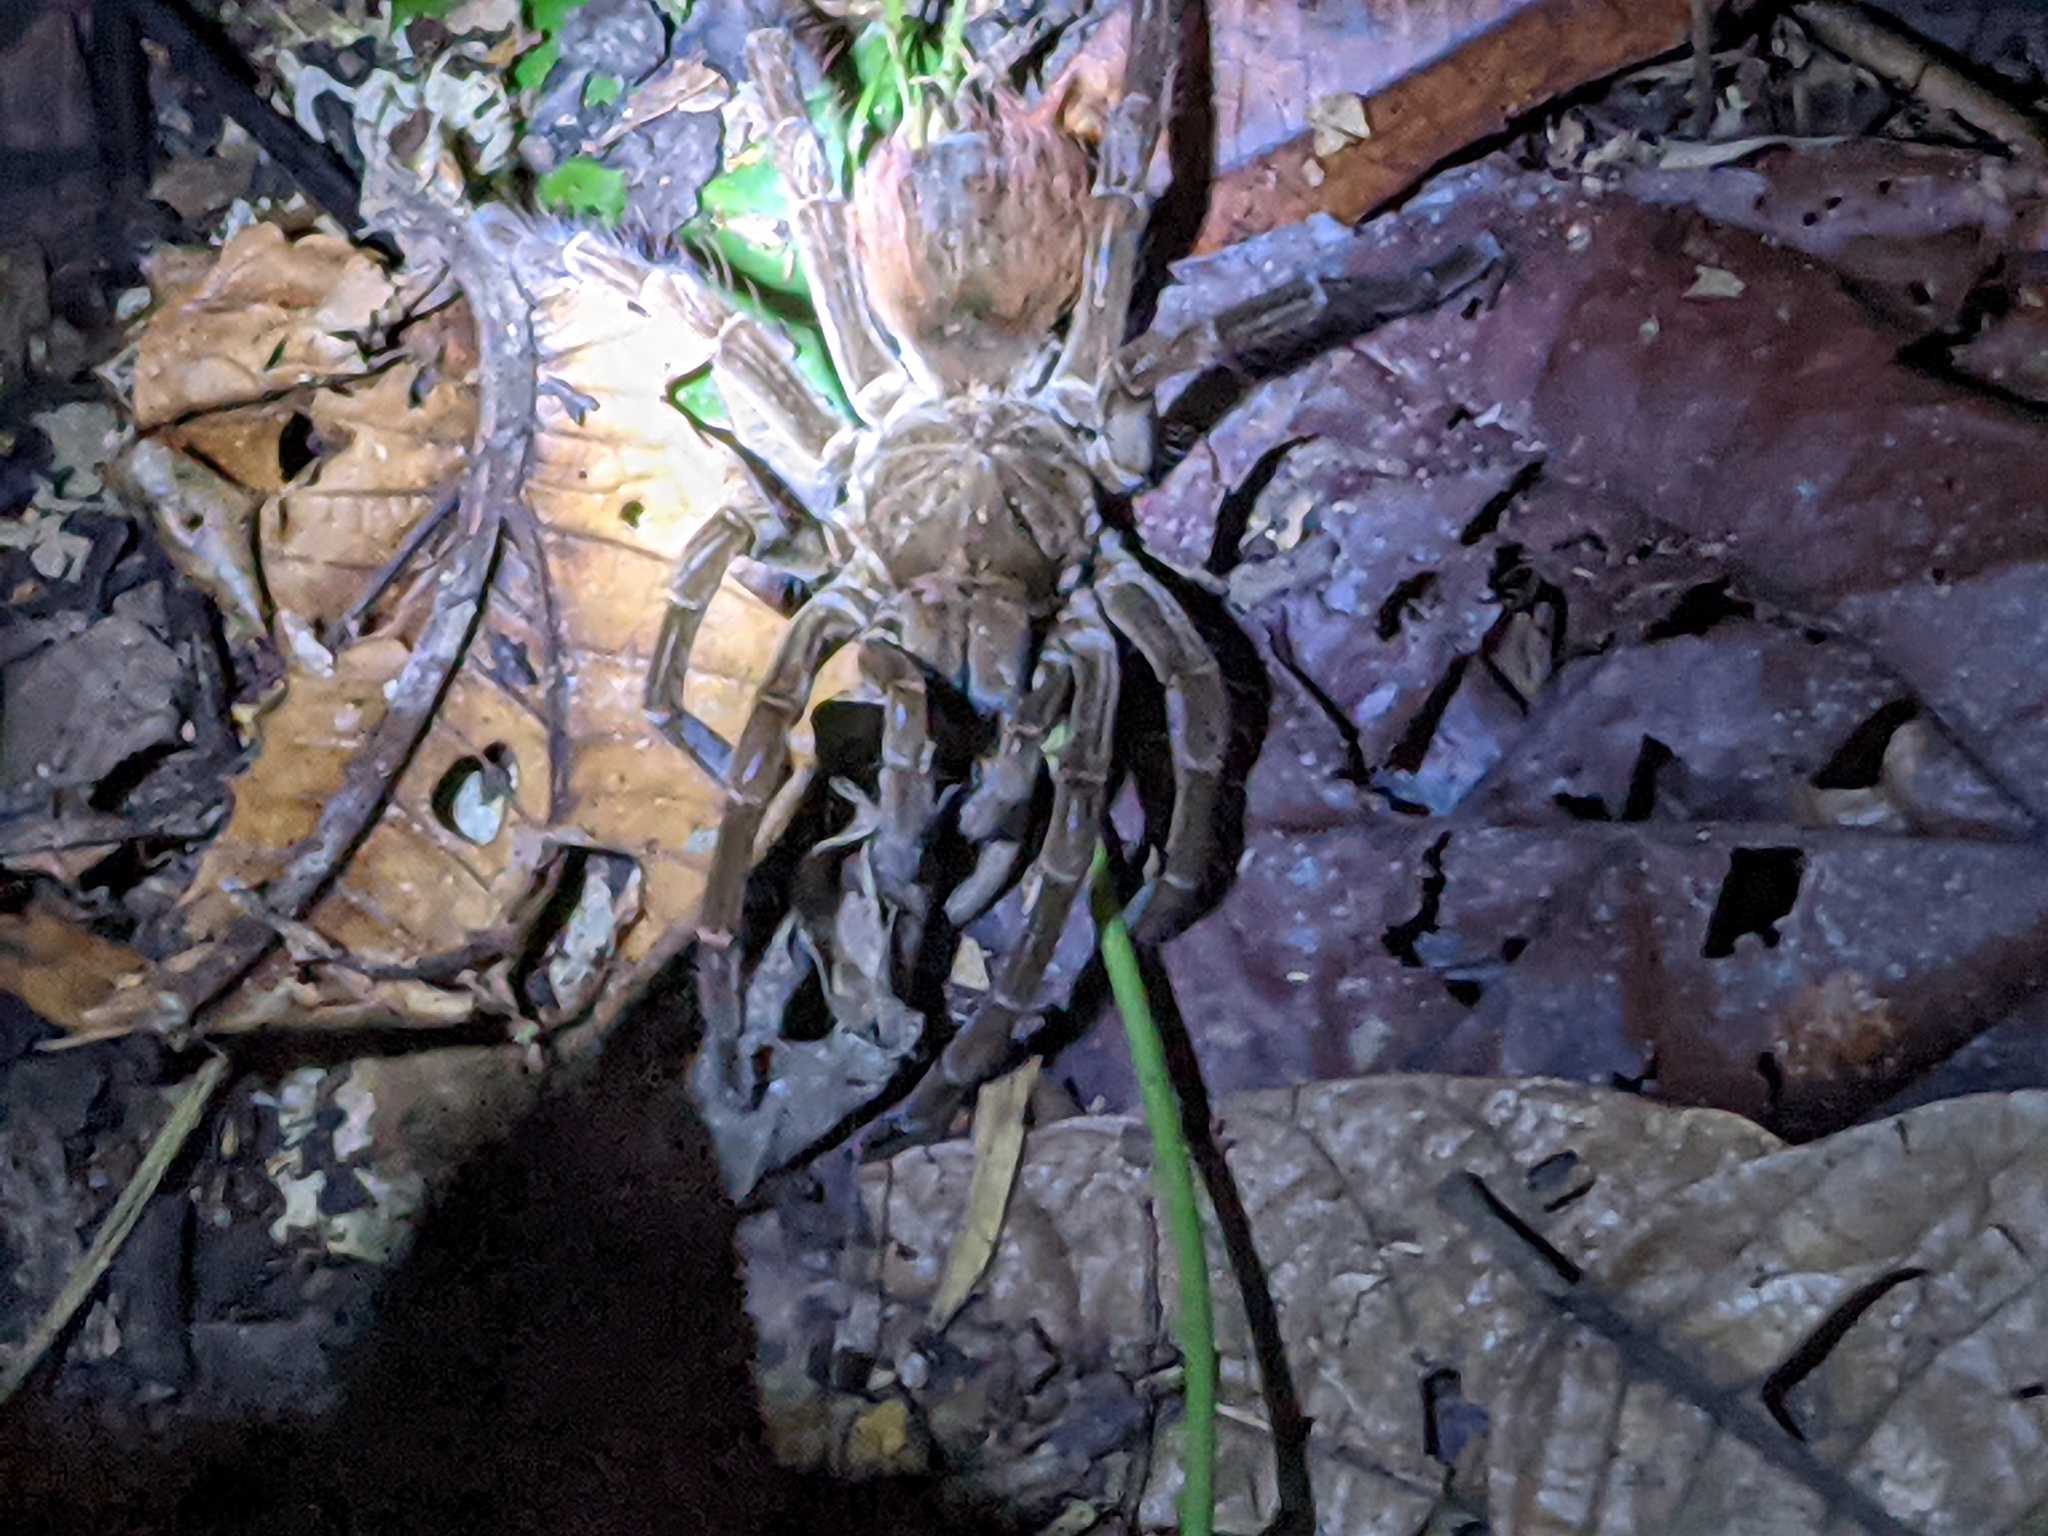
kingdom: Animalia
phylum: Arthropoda
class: Arachnida
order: Araneae
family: Theraphosidae
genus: Megaphobema
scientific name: Megaphobema velvetosoma
